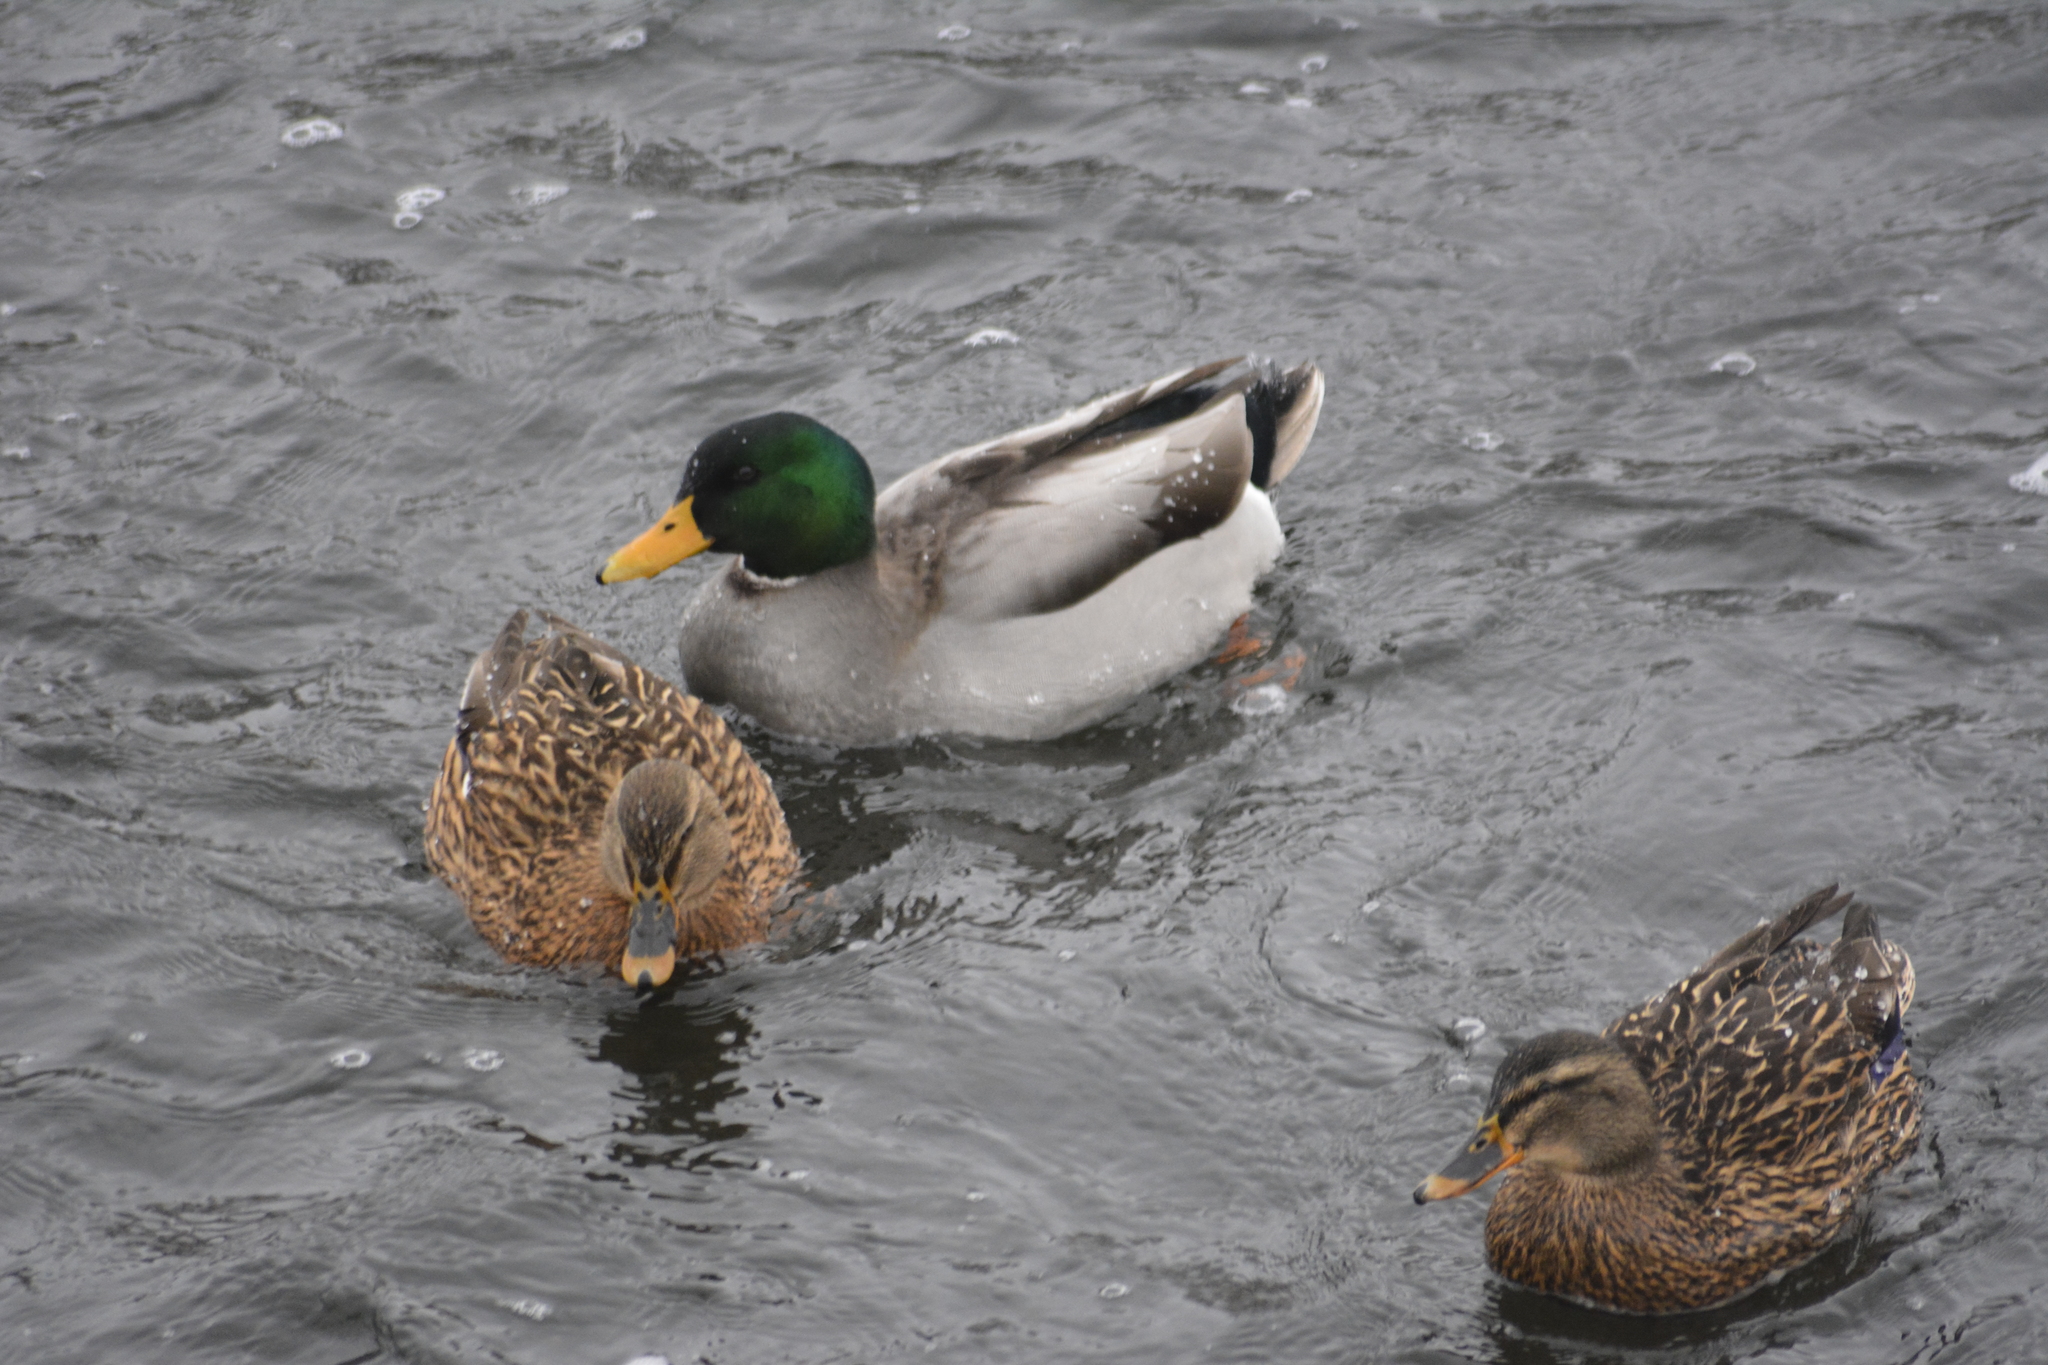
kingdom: Animalia
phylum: Chordata
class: Aves
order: Anseriformes
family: Anatidae
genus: Anas
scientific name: Anas platyrhynchos
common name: Mallard
